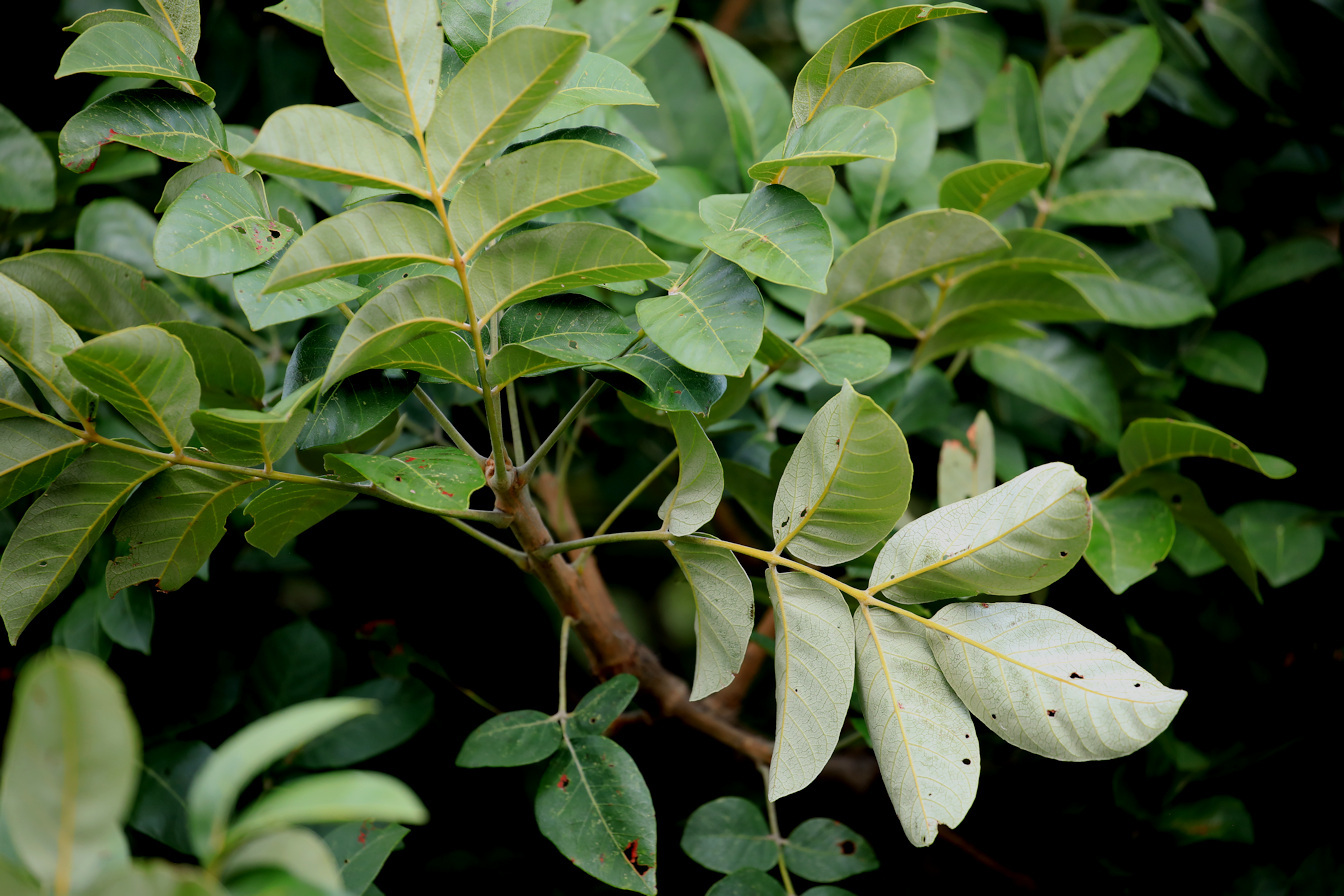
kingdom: Plantae
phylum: Tracheophyta
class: Magnoliopsida
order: Sapindales
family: Anacardiaceae
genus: Lannea
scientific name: Lannea discolor
